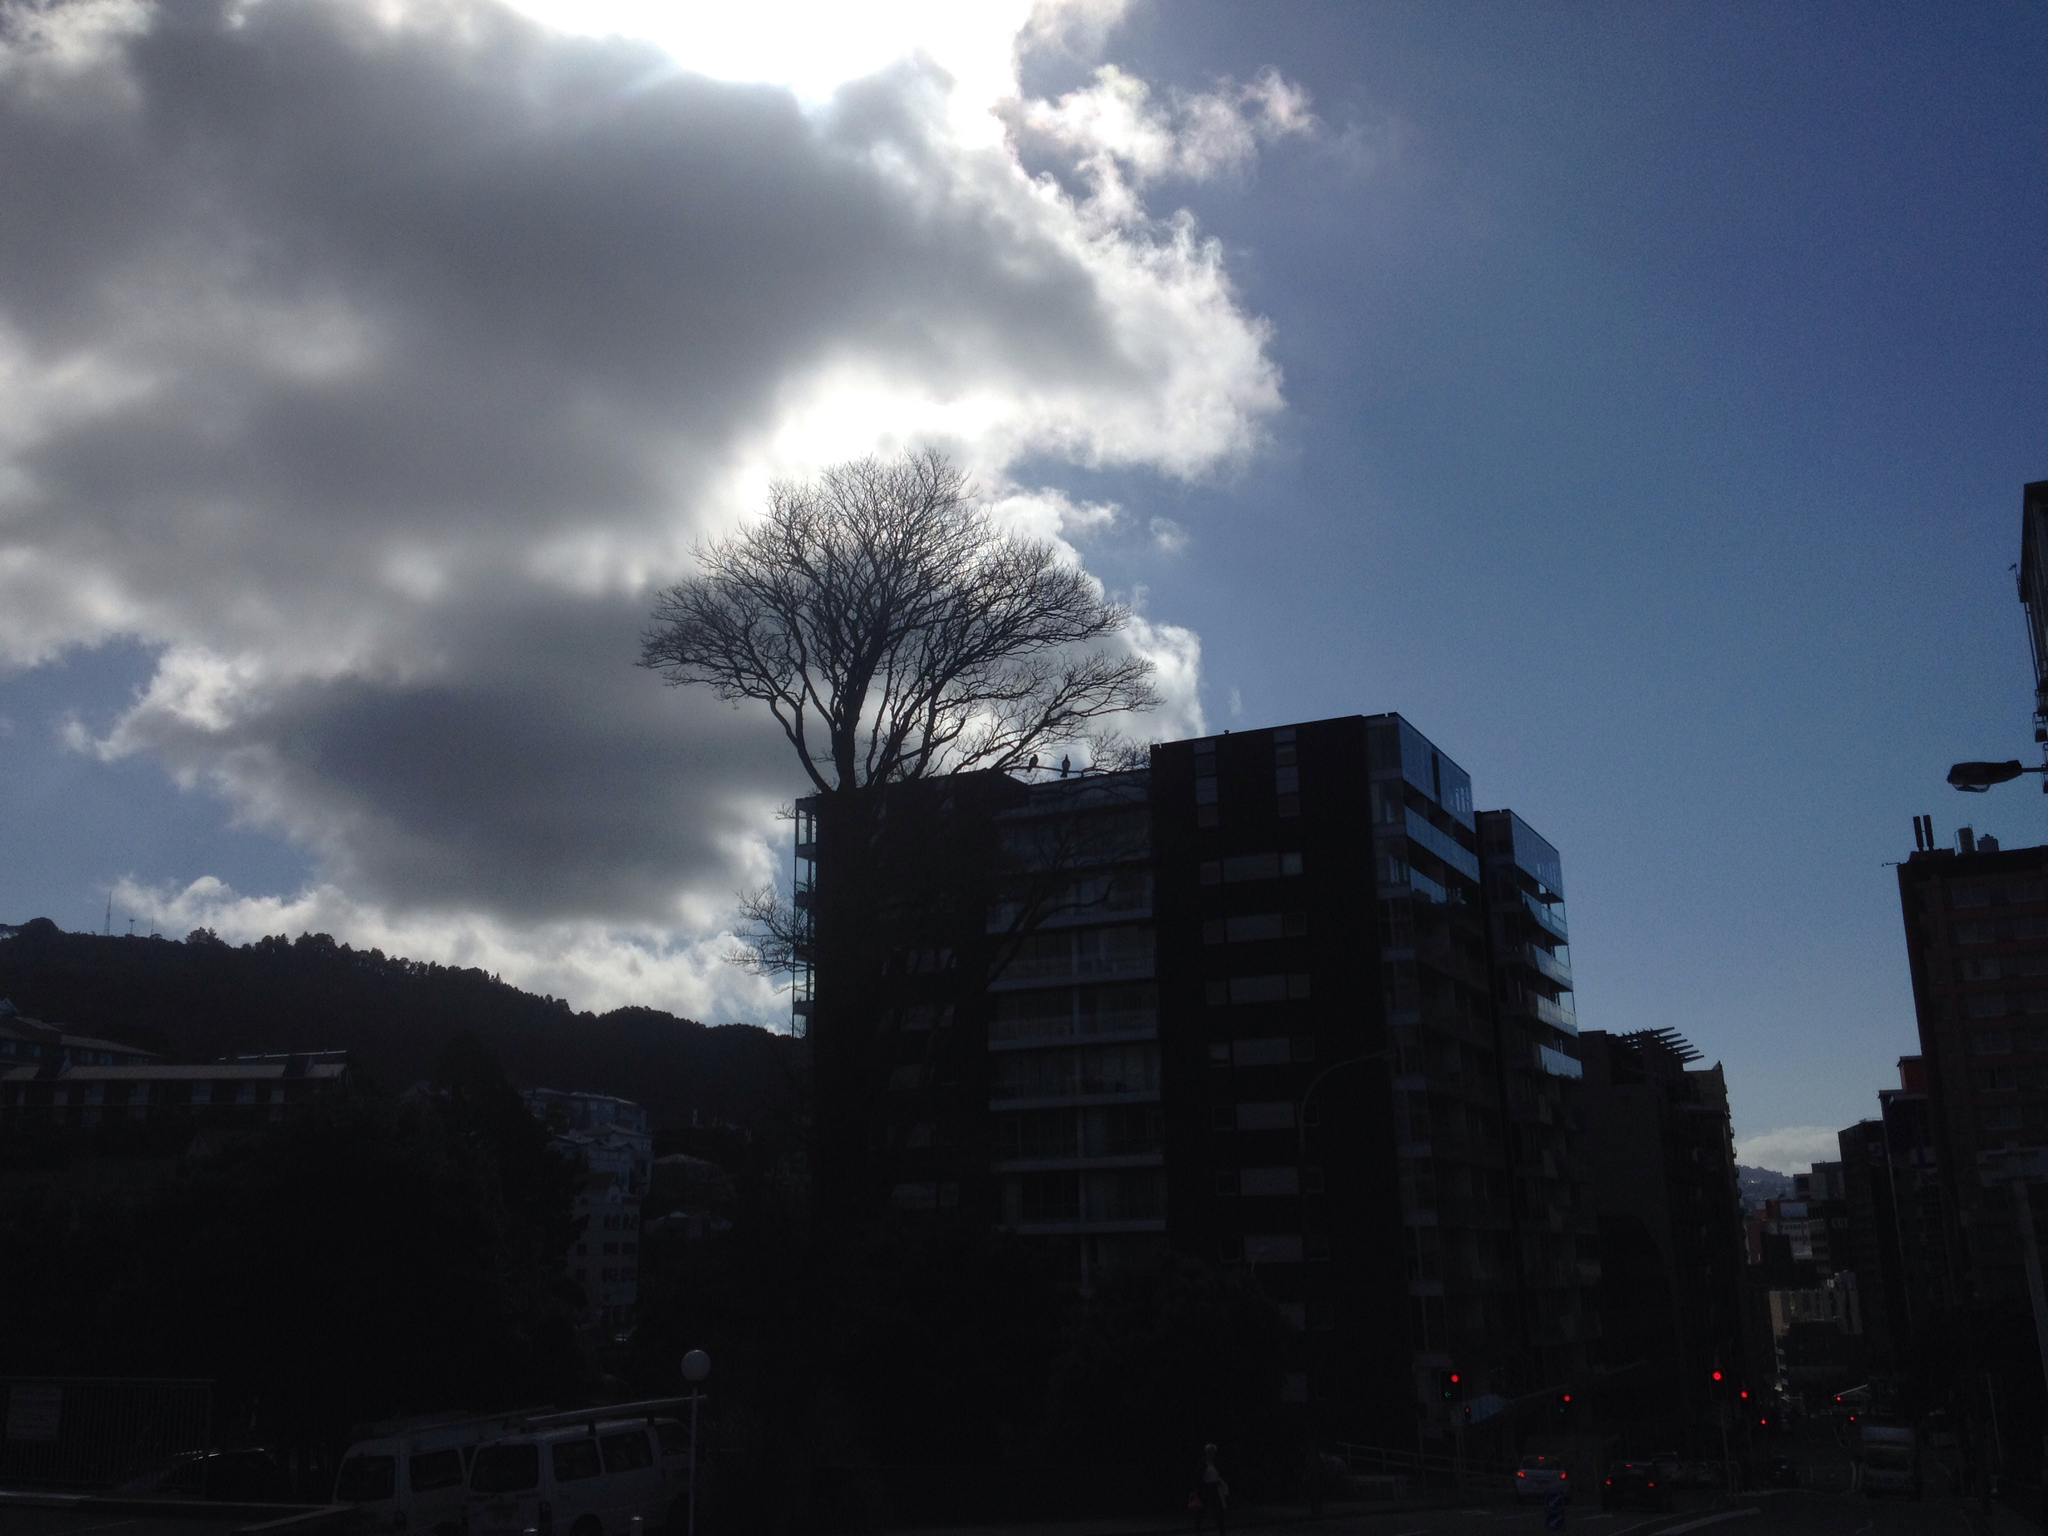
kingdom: Animalia
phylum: Chordata
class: Aves
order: Columbiformes
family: Columbidae
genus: Hemiphaga
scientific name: Hemiphaga novaeseelandiae
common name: New zealand pigeon
